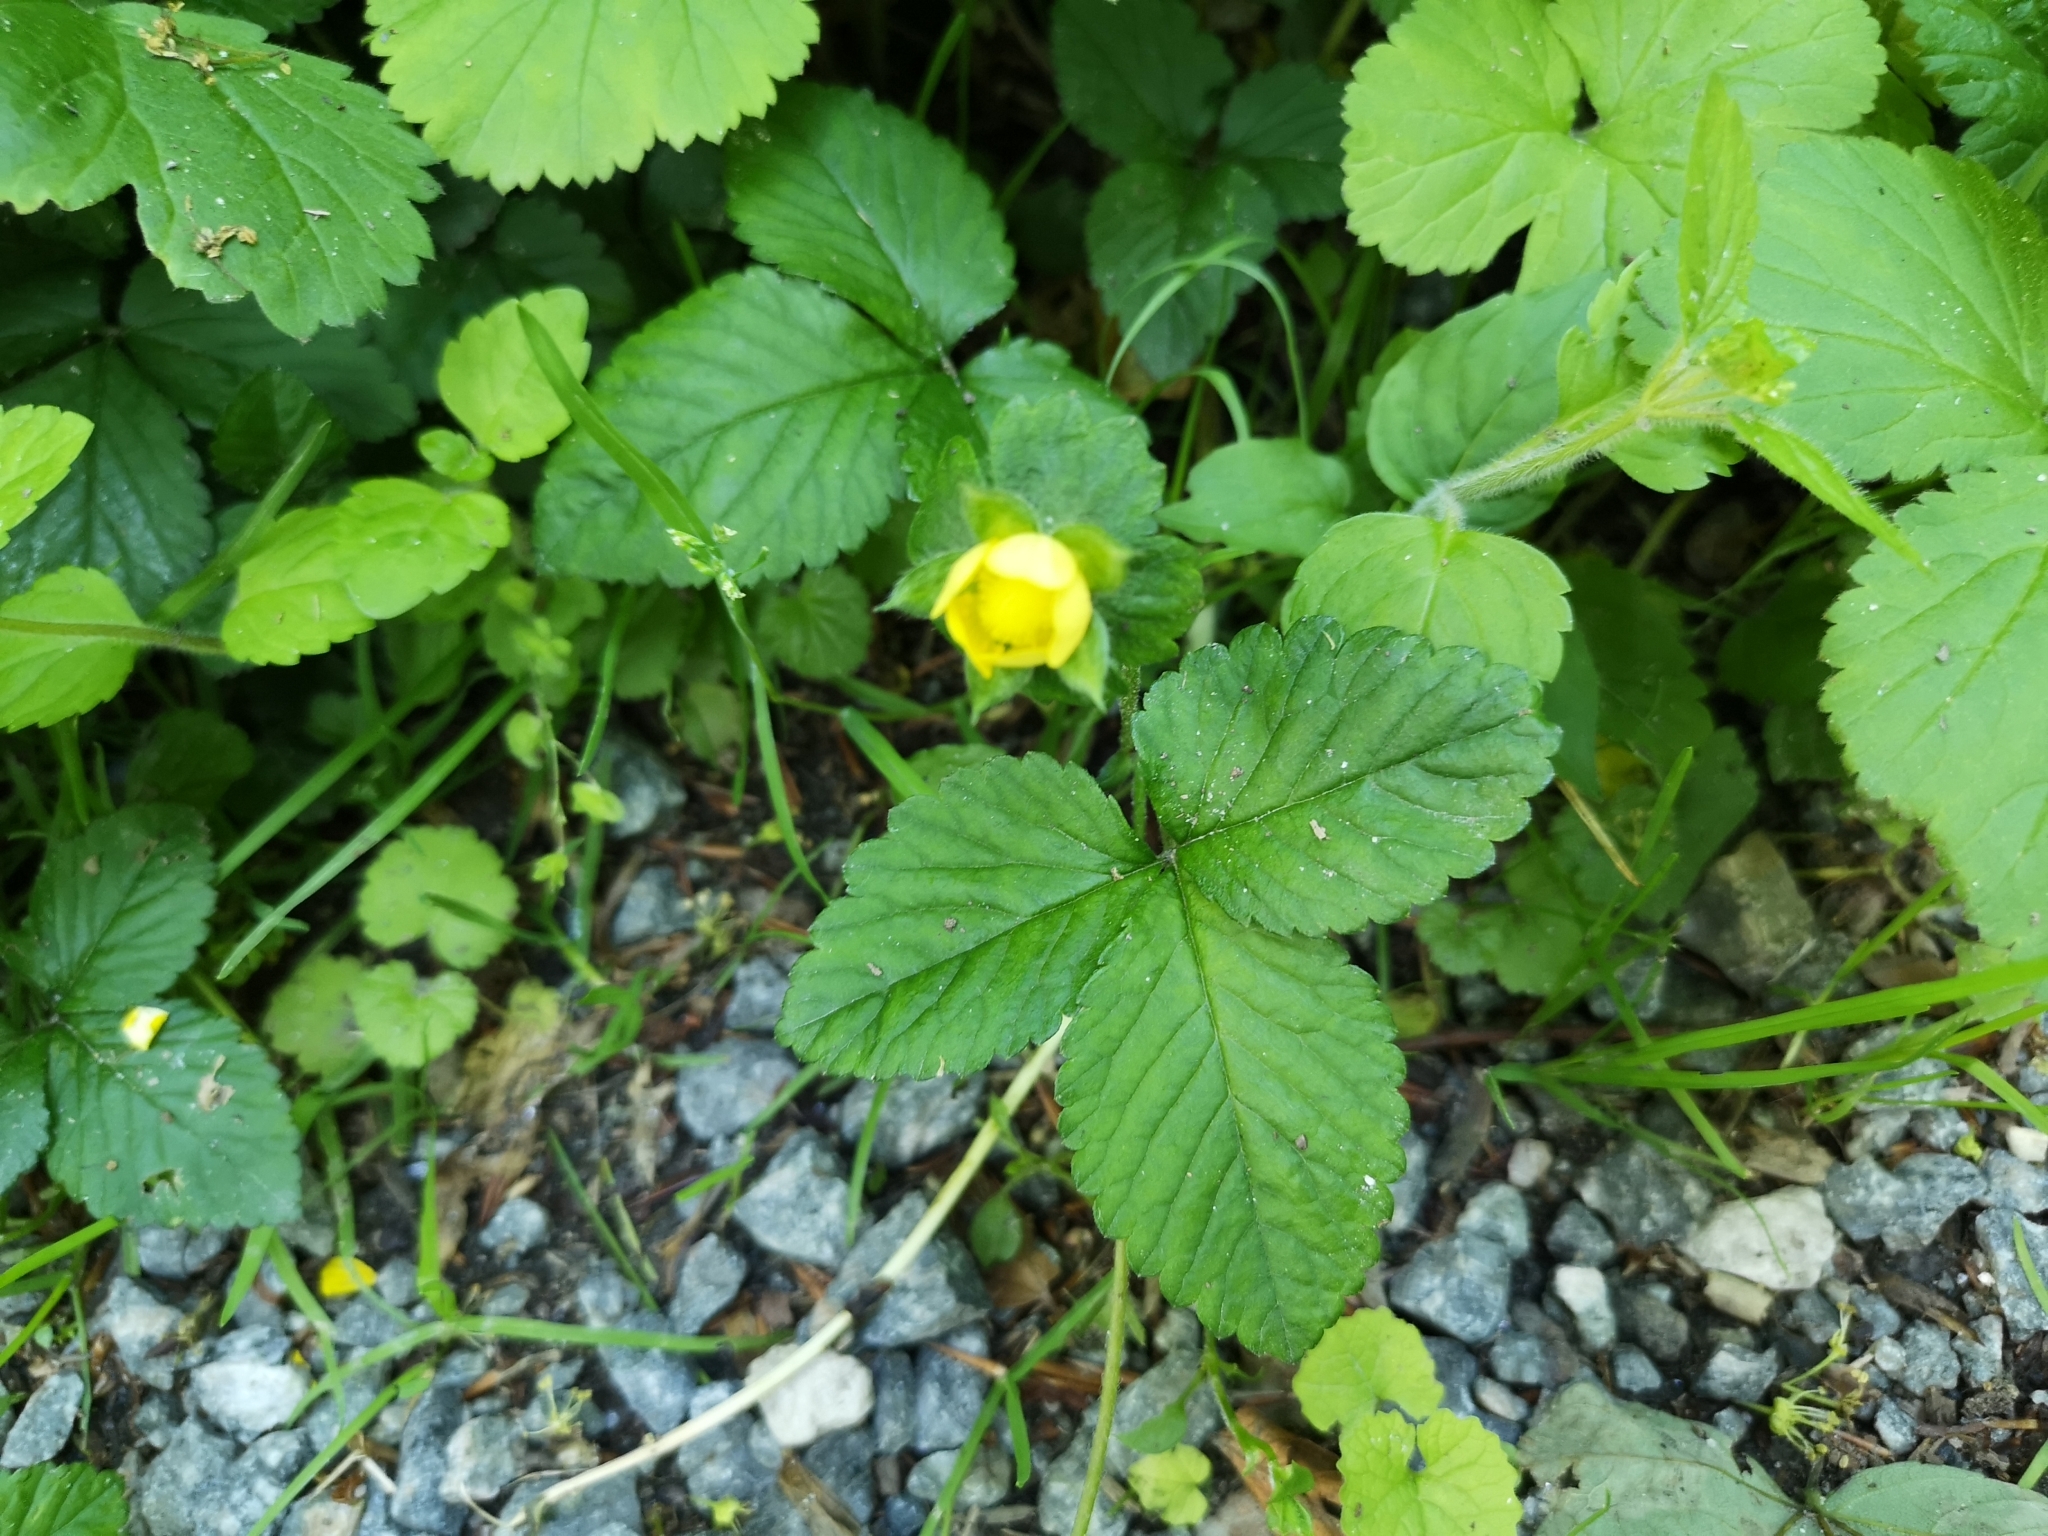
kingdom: Plantae
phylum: Tracheophyta
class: Magnoliopsida
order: Rosales
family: Rosaceae
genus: Potentilla
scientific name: Potentilla indica
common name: Yellow-flowered strawberry
